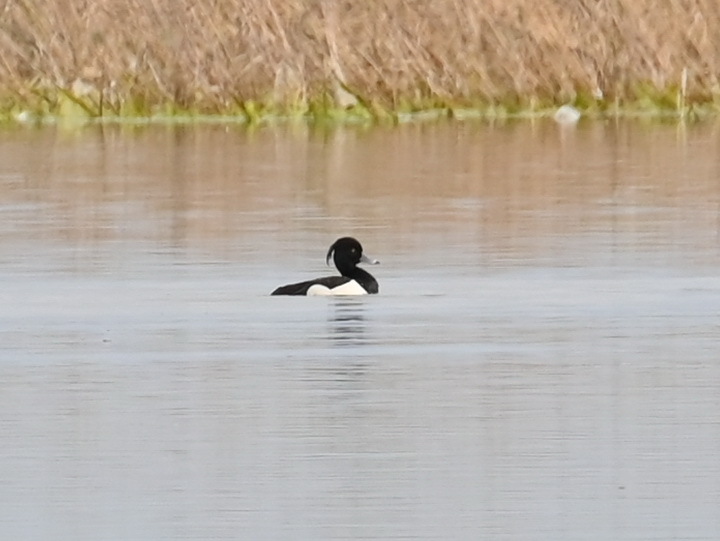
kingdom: Animalia
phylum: Chordata
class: Aves
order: Anseriformes
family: Anatidae
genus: Aythya
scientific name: Aythya fuligula
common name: Tufted duck
